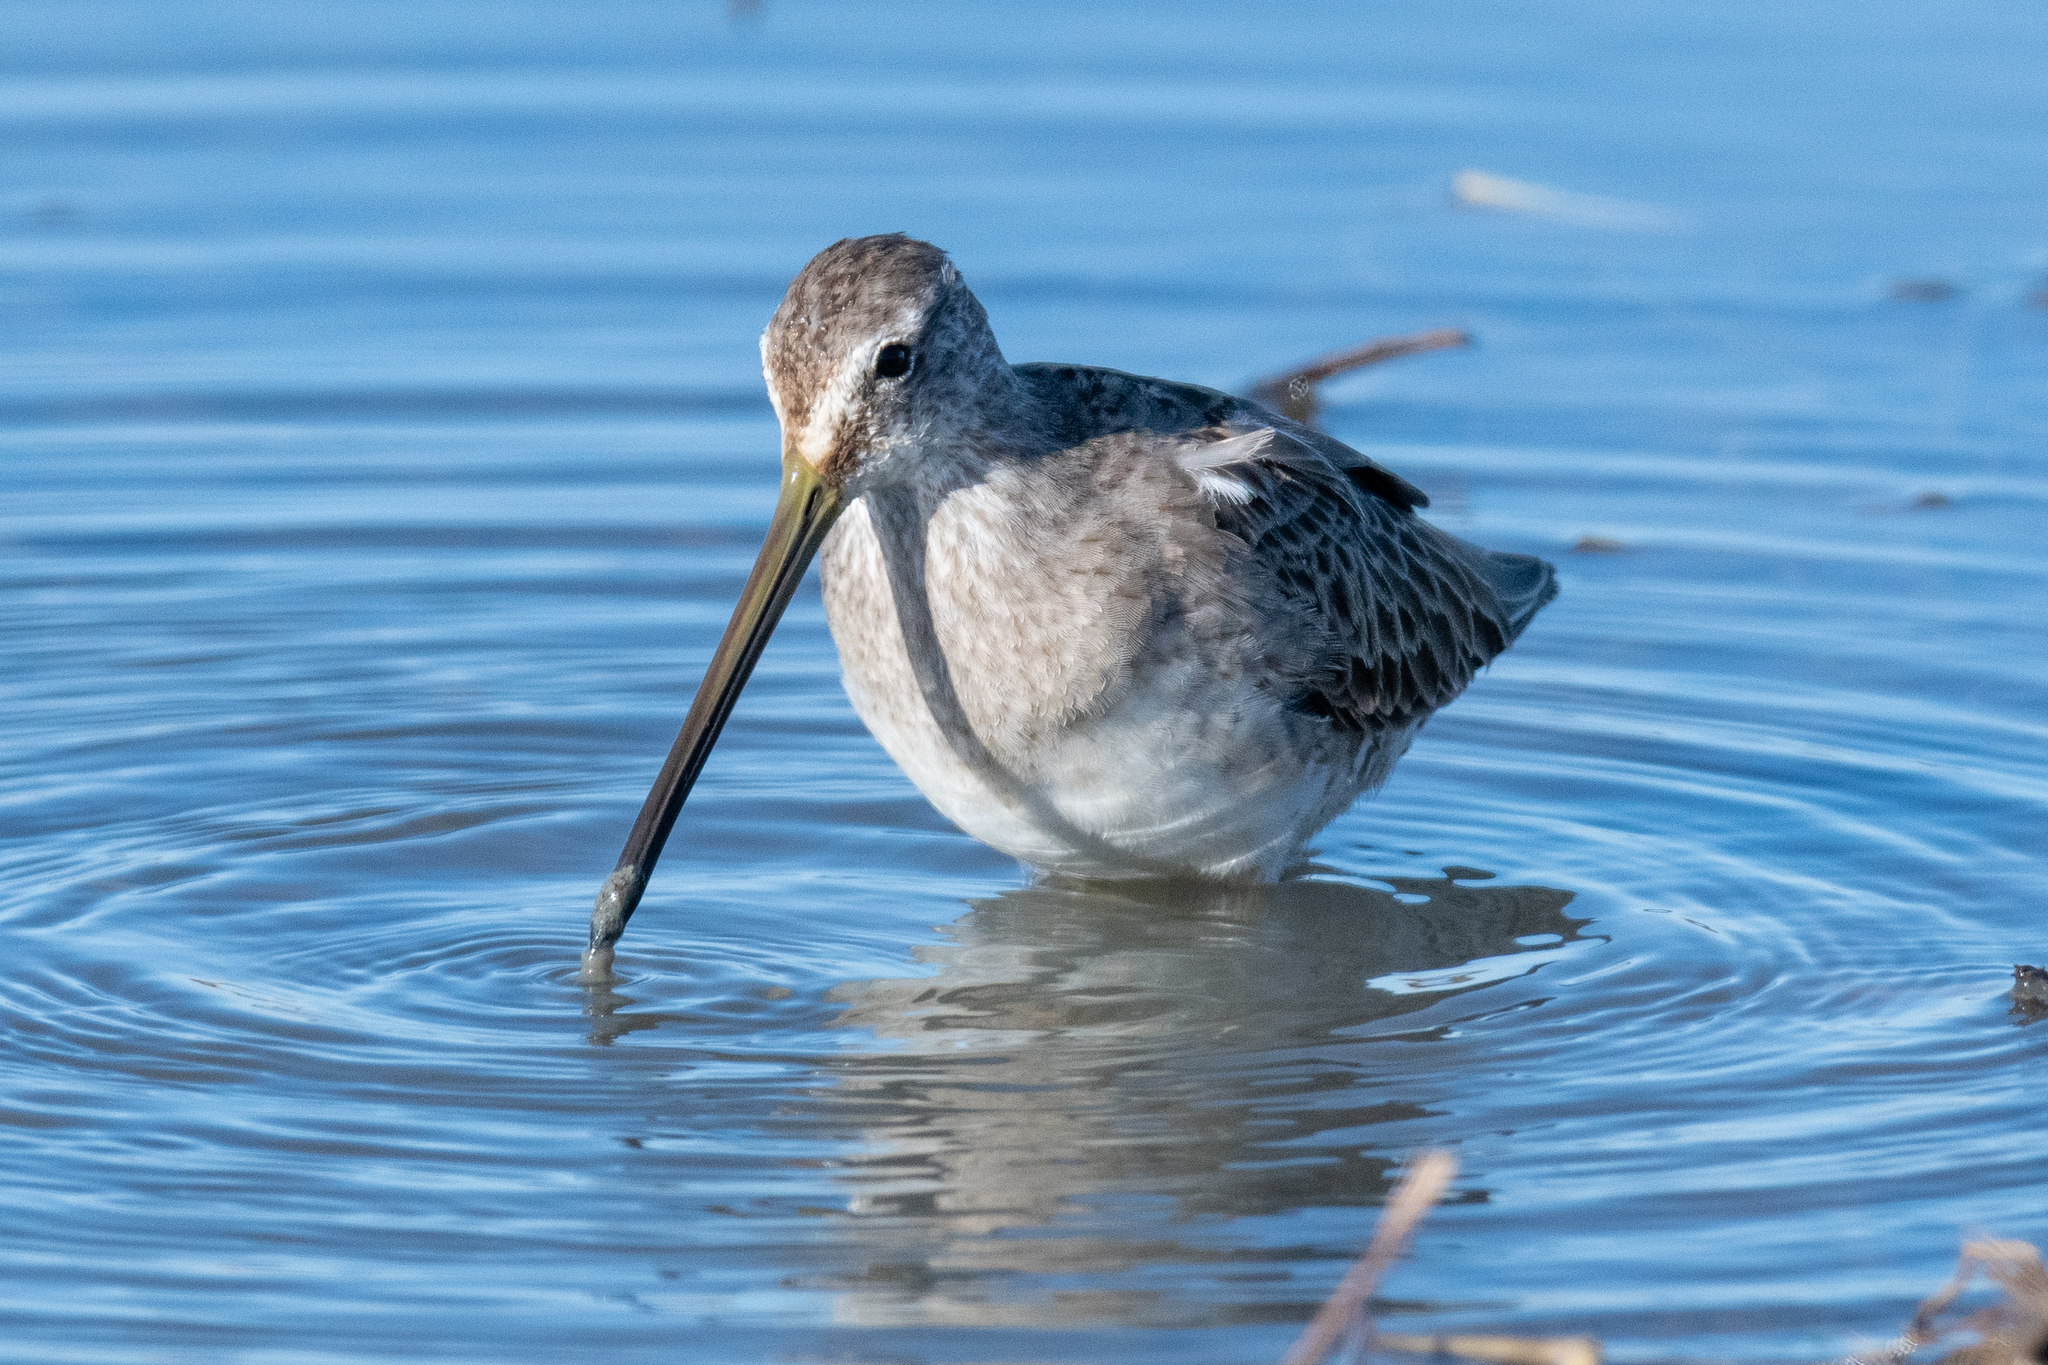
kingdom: Animalia
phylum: Chordata
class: Aves
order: Charadriiformes
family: Scolopacidae
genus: Limnodromus
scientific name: Limnodromus scolopaceus
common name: Long-billed dowitcher
